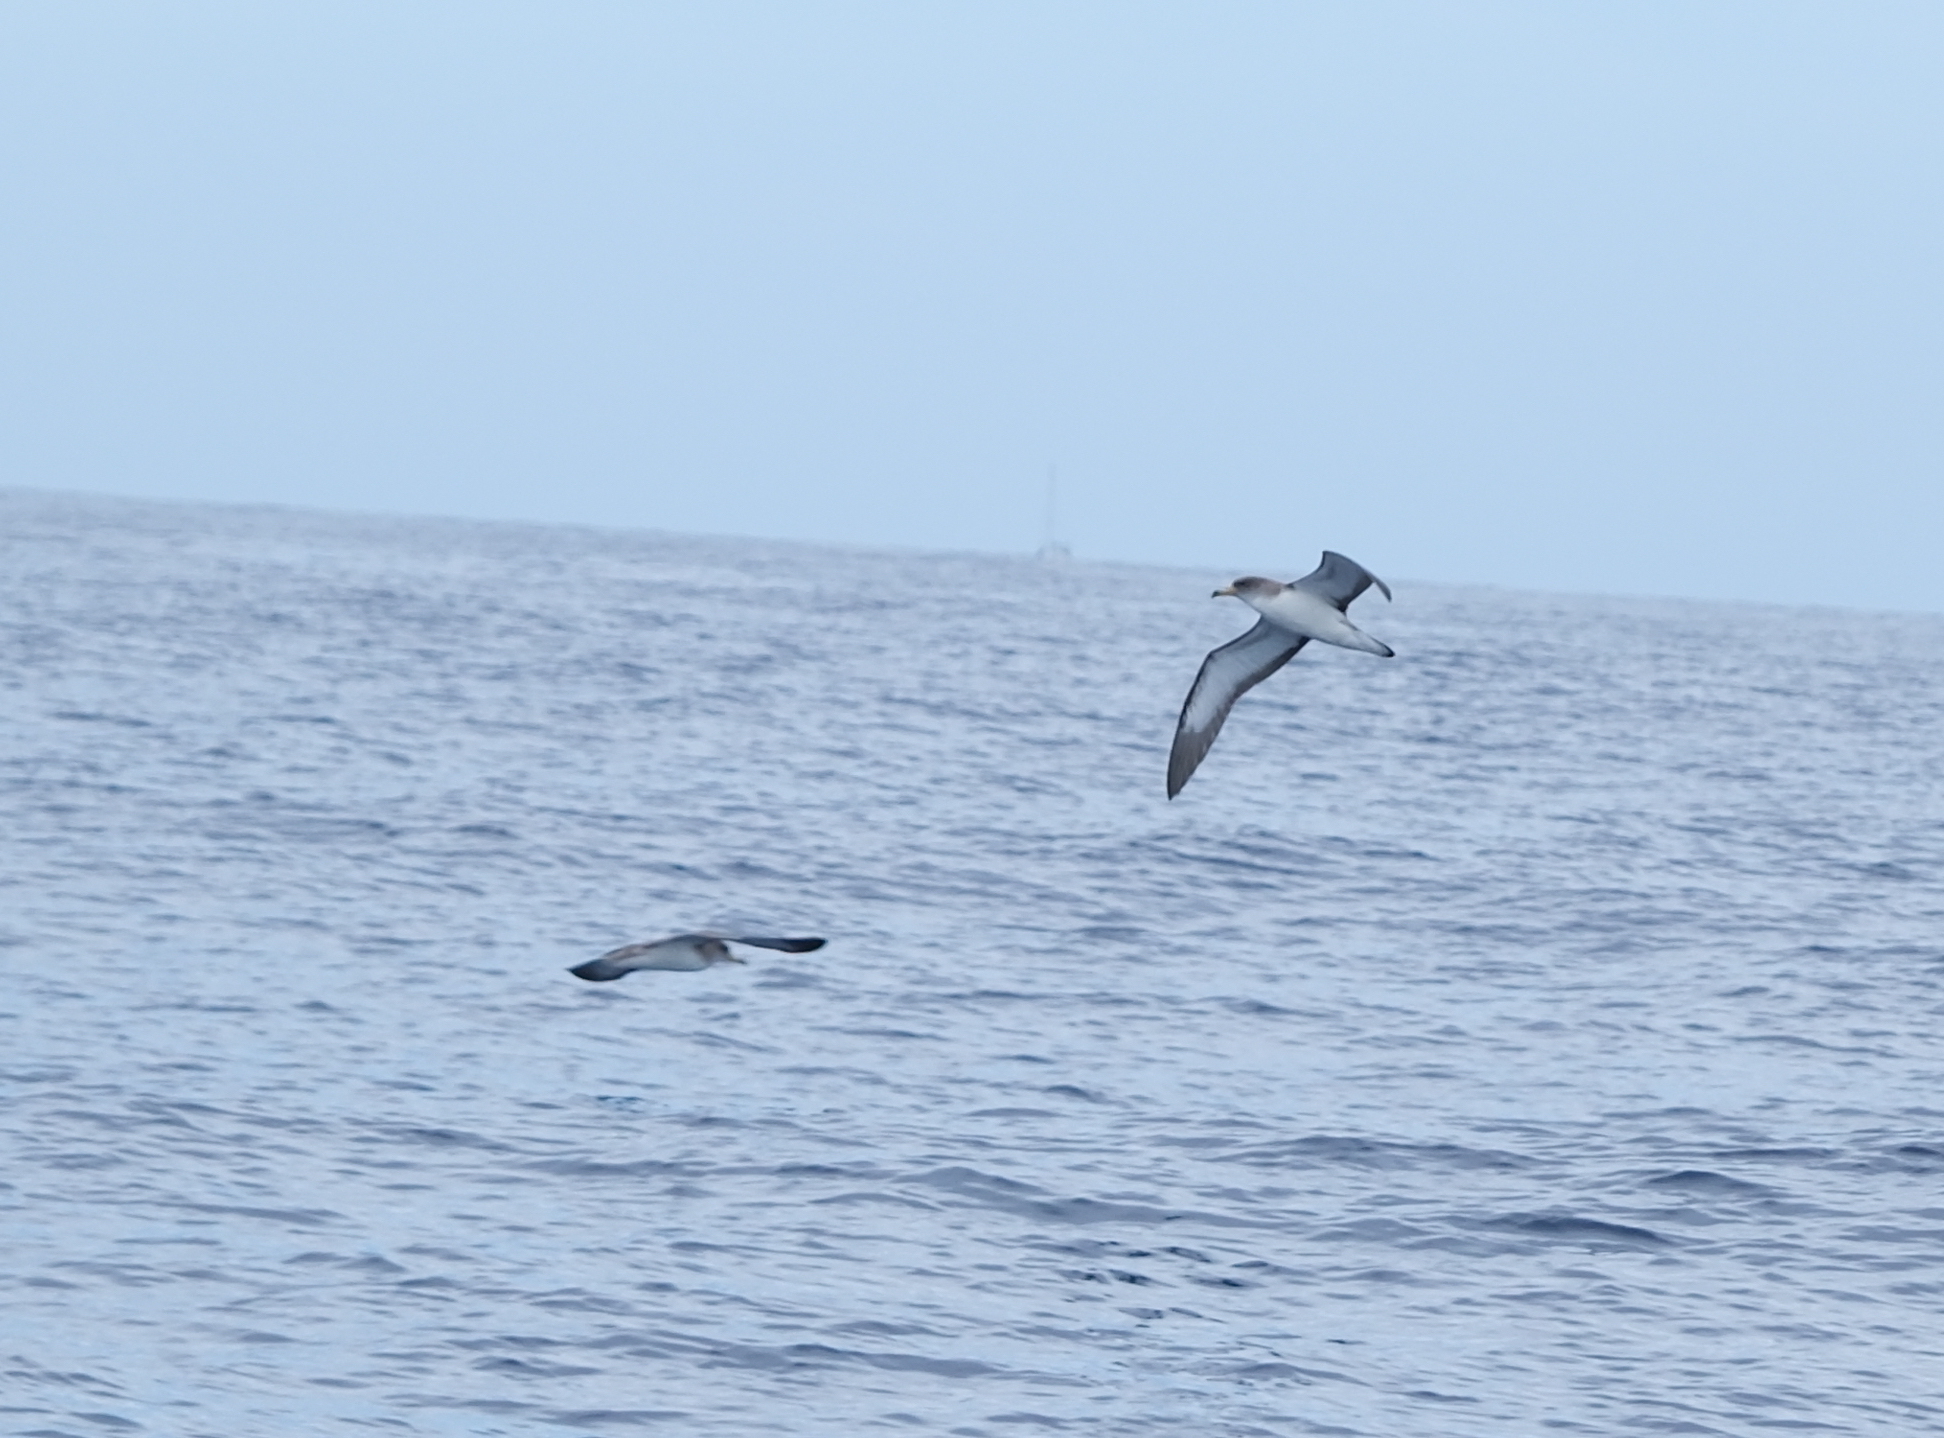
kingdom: Animalia
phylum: Chordata
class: Aves
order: Procellariiformes
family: Procellariidae
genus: Calonectris
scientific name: Calonectris diomedea
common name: Cory's shearwater
